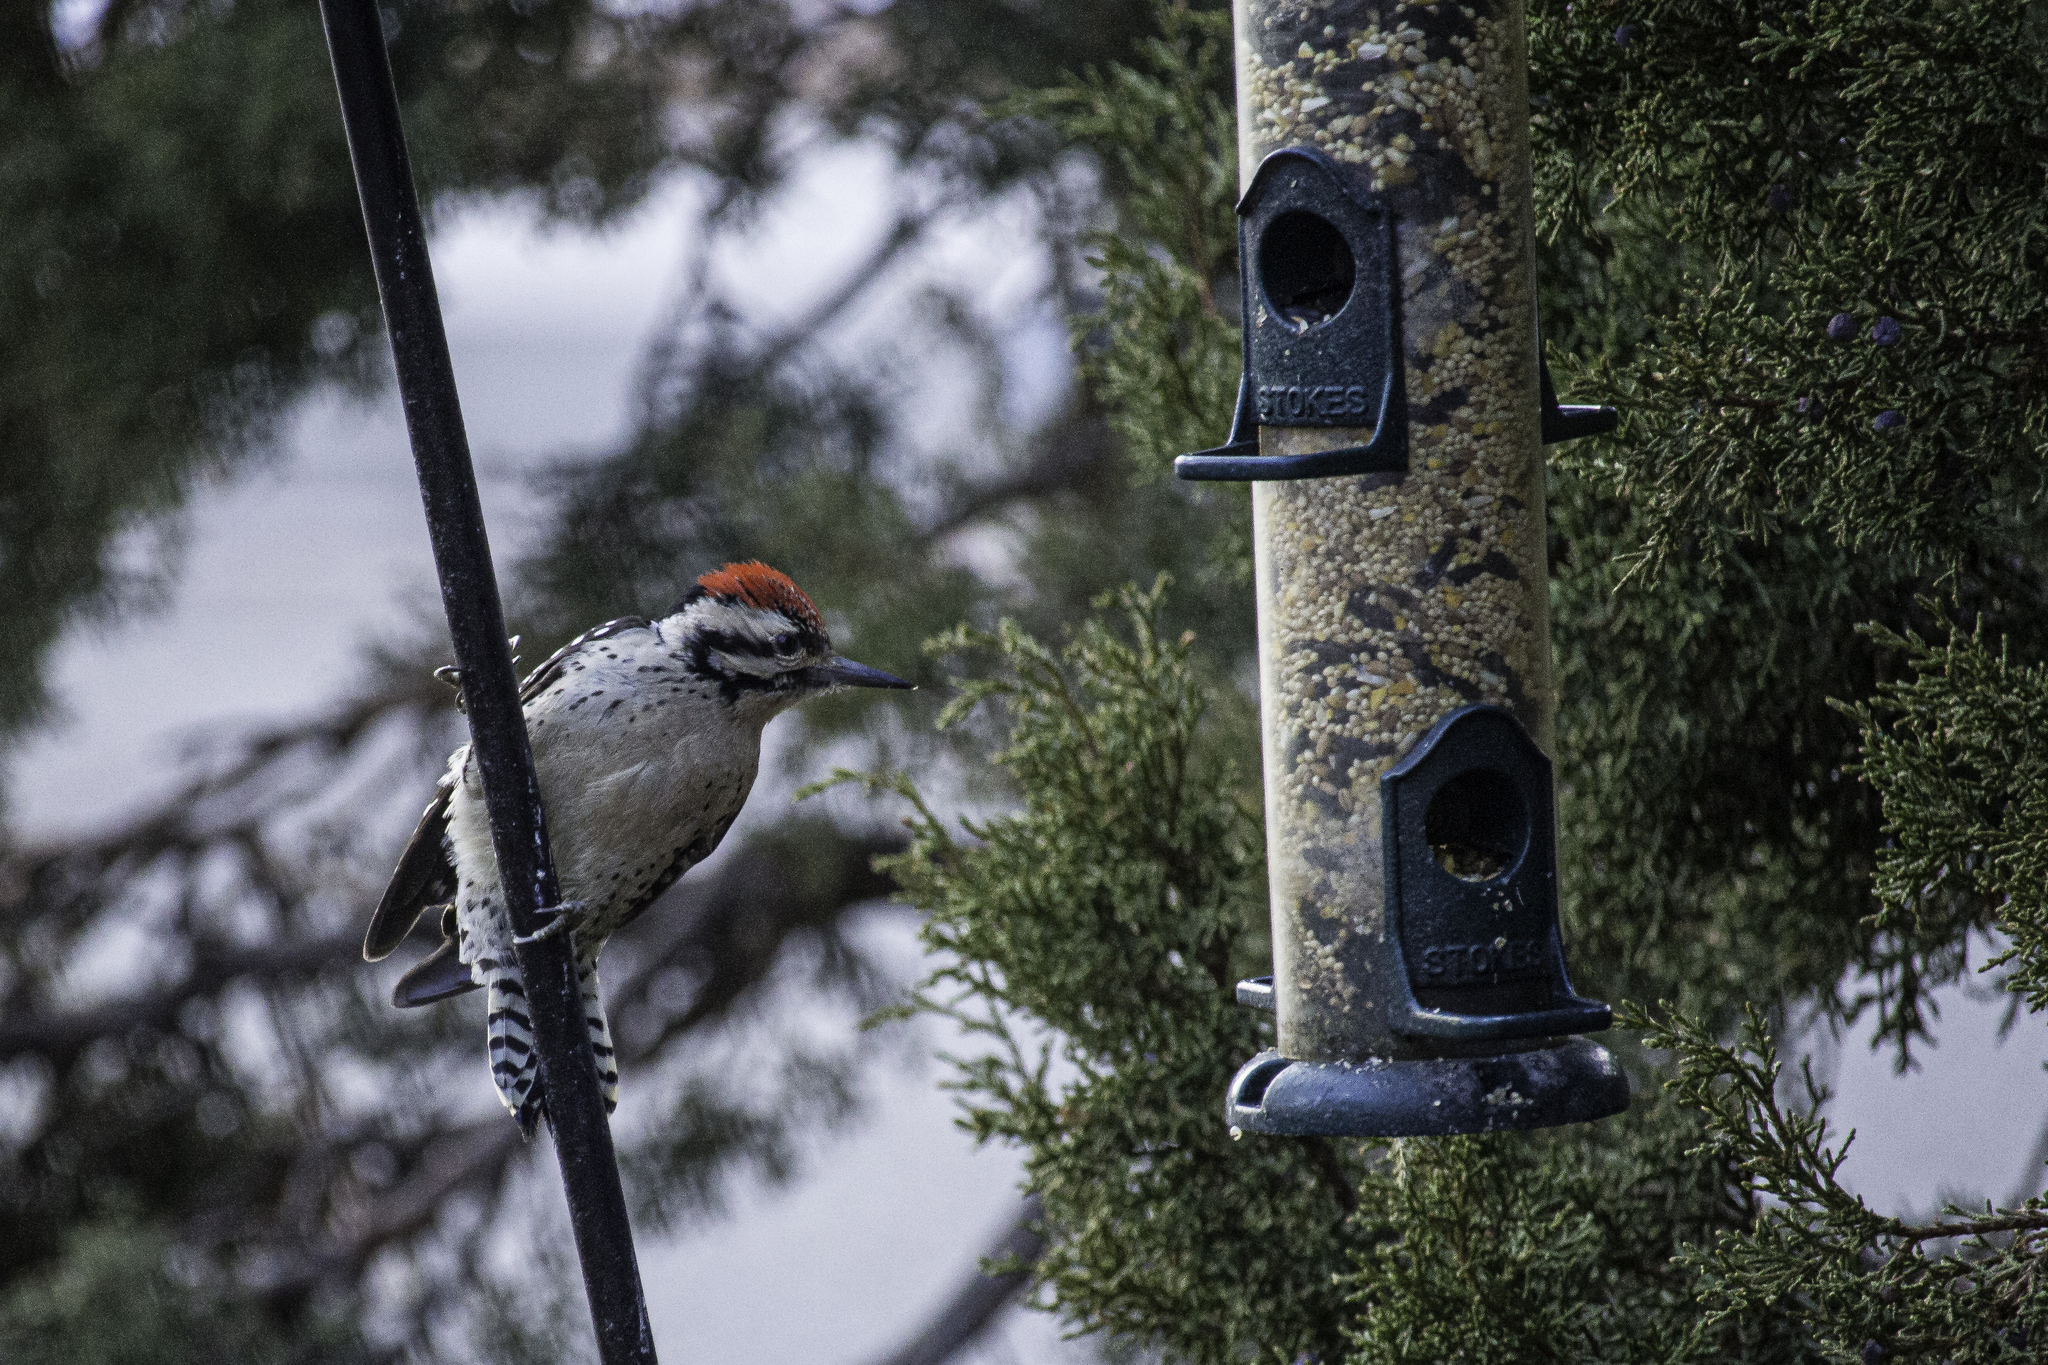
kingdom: Animalia
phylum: Chordata
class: Aves
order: Piciformes
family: Picidae
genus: Dryobates
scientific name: Dryobates scalaris
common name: Ladder-backed woodpecker
